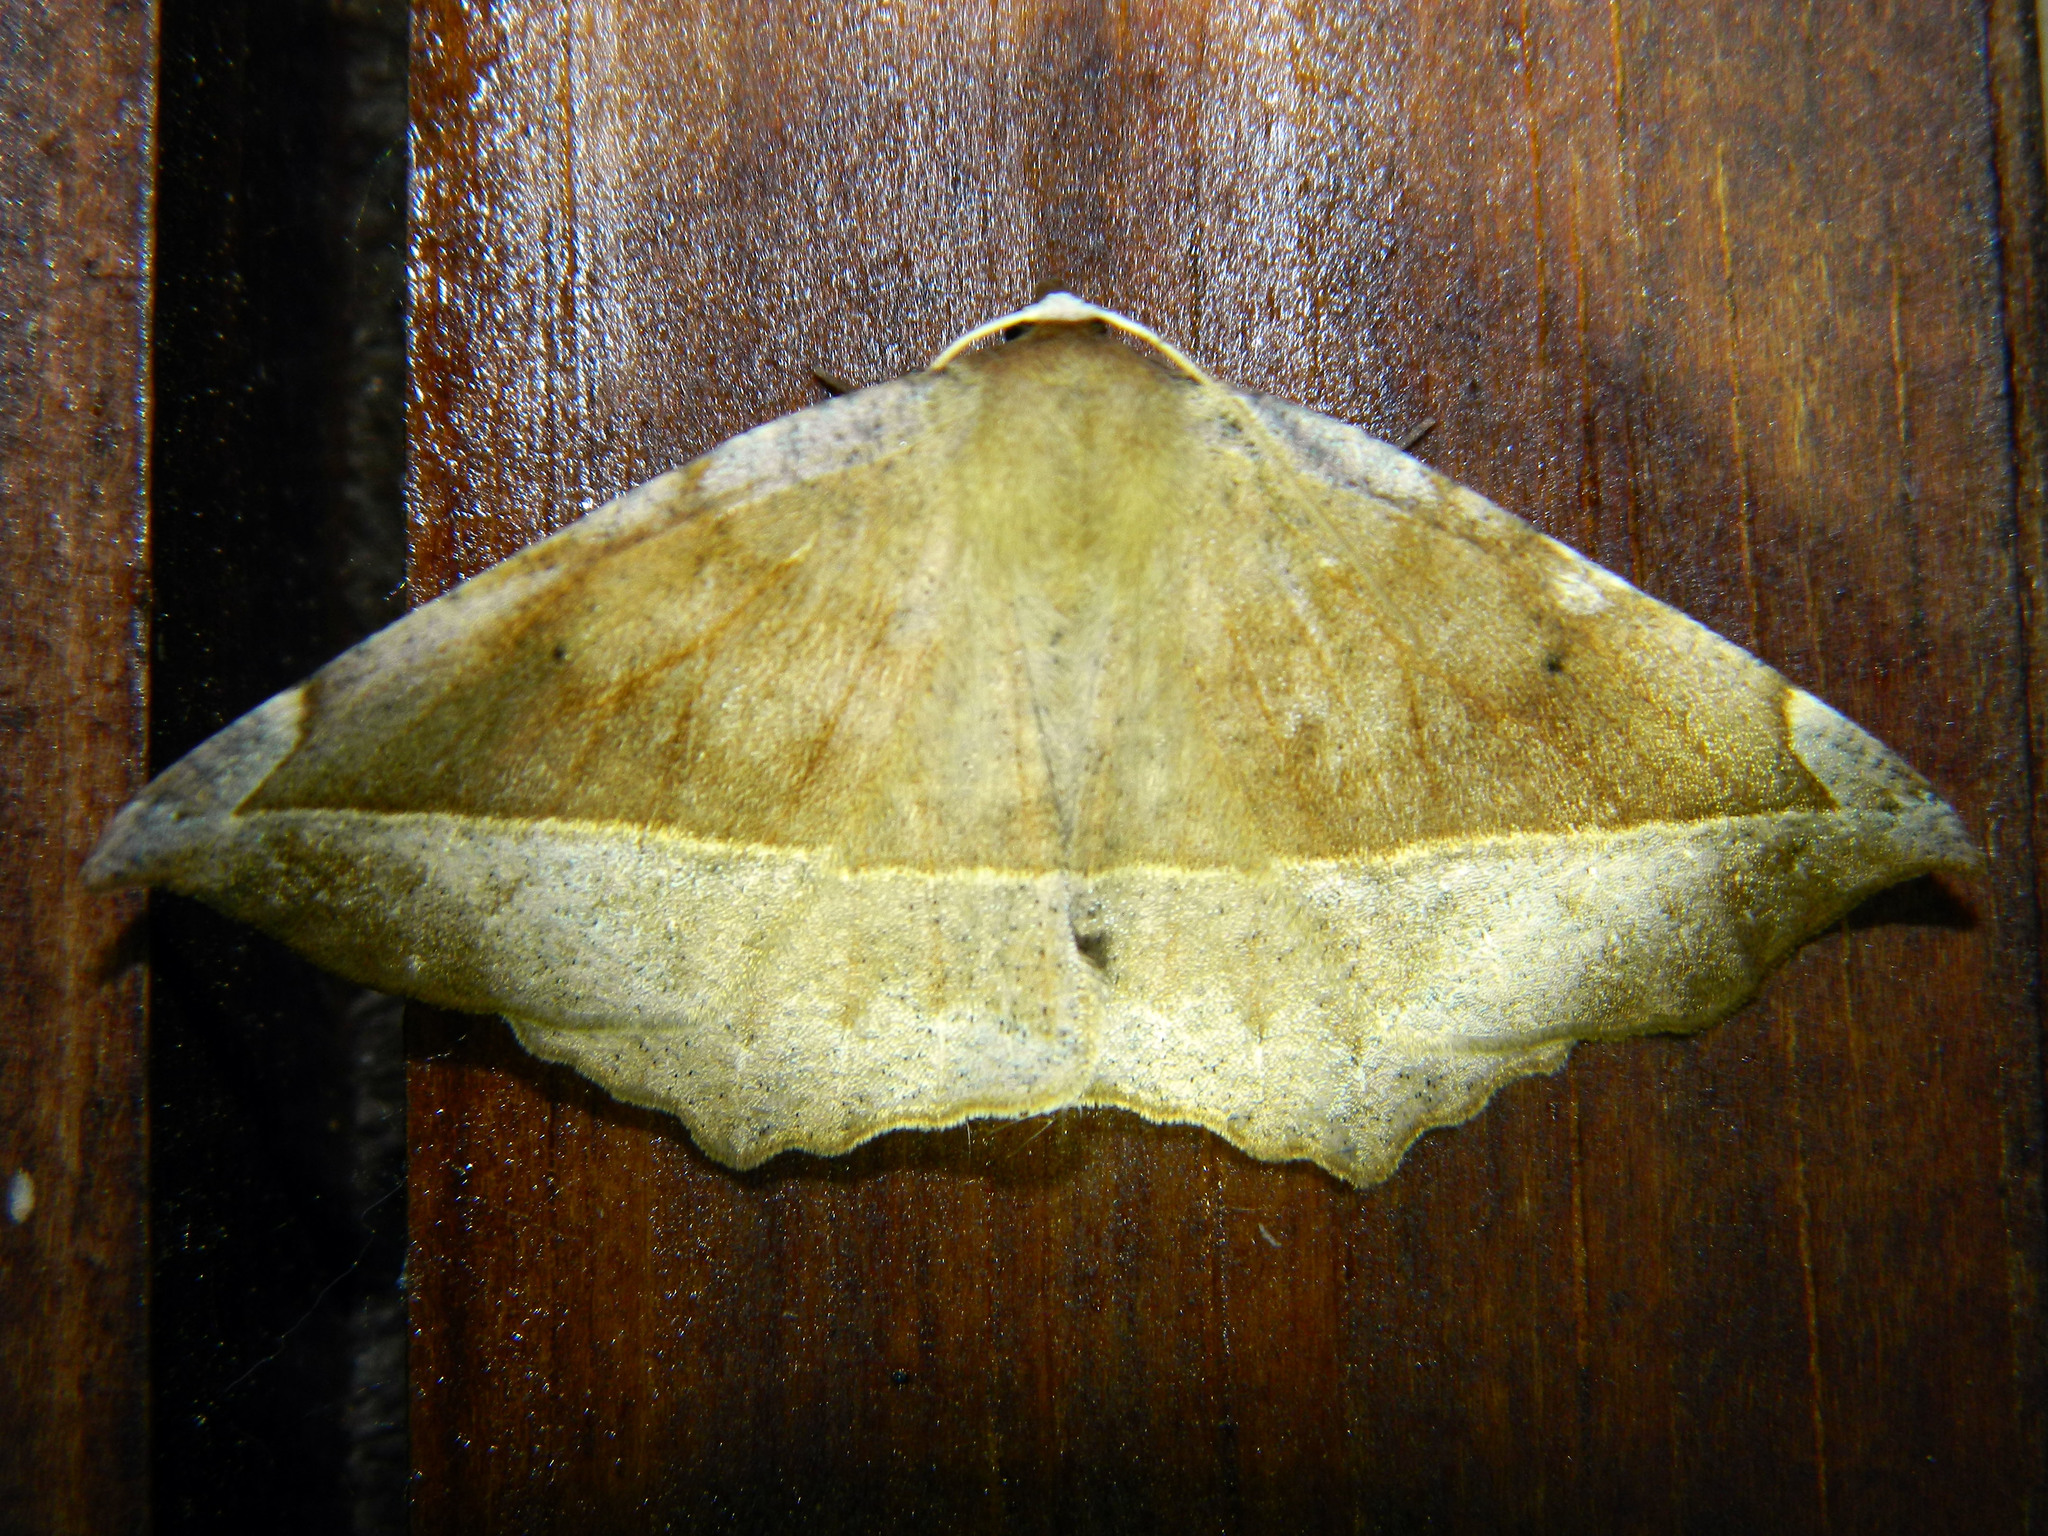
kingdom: Animalia
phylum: Arthropoda
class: Insecta
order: Lepidoptera
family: Geometridae
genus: Eutrapela
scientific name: Eutrapela clemataria
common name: Curved-toothed geometer
